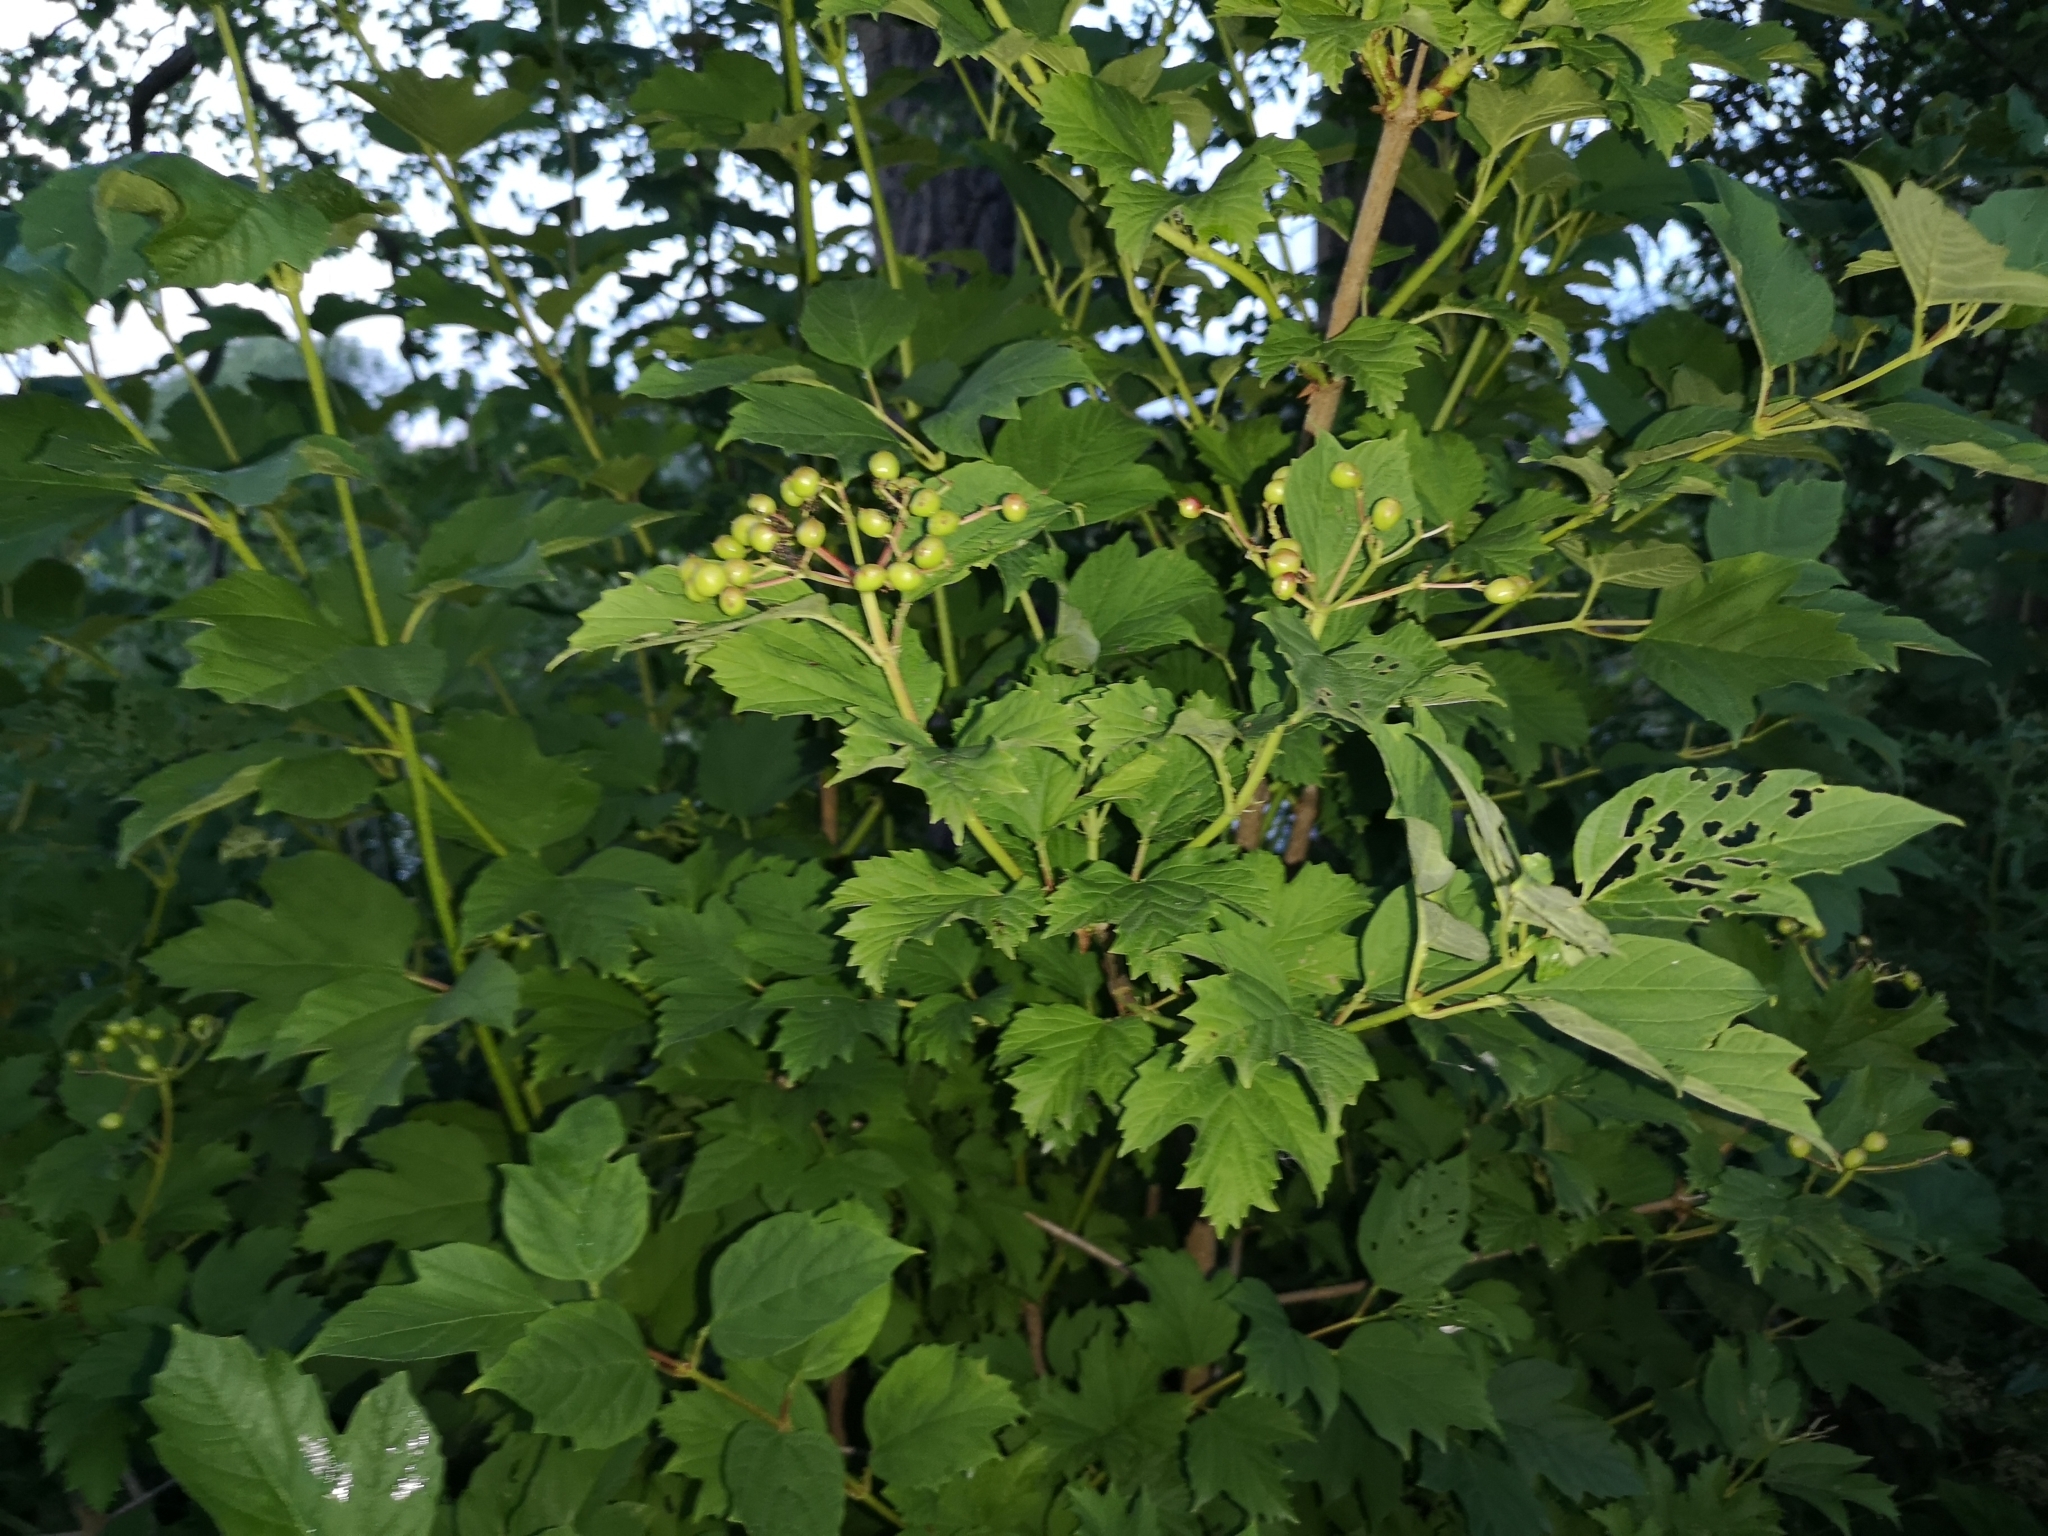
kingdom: Plantae
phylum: Tracheophyta
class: Magnoliopsida
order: Dipsacales
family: Viburnaceae
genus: Viburnum
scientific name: Viburnum opulus
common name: Guelder-rose
